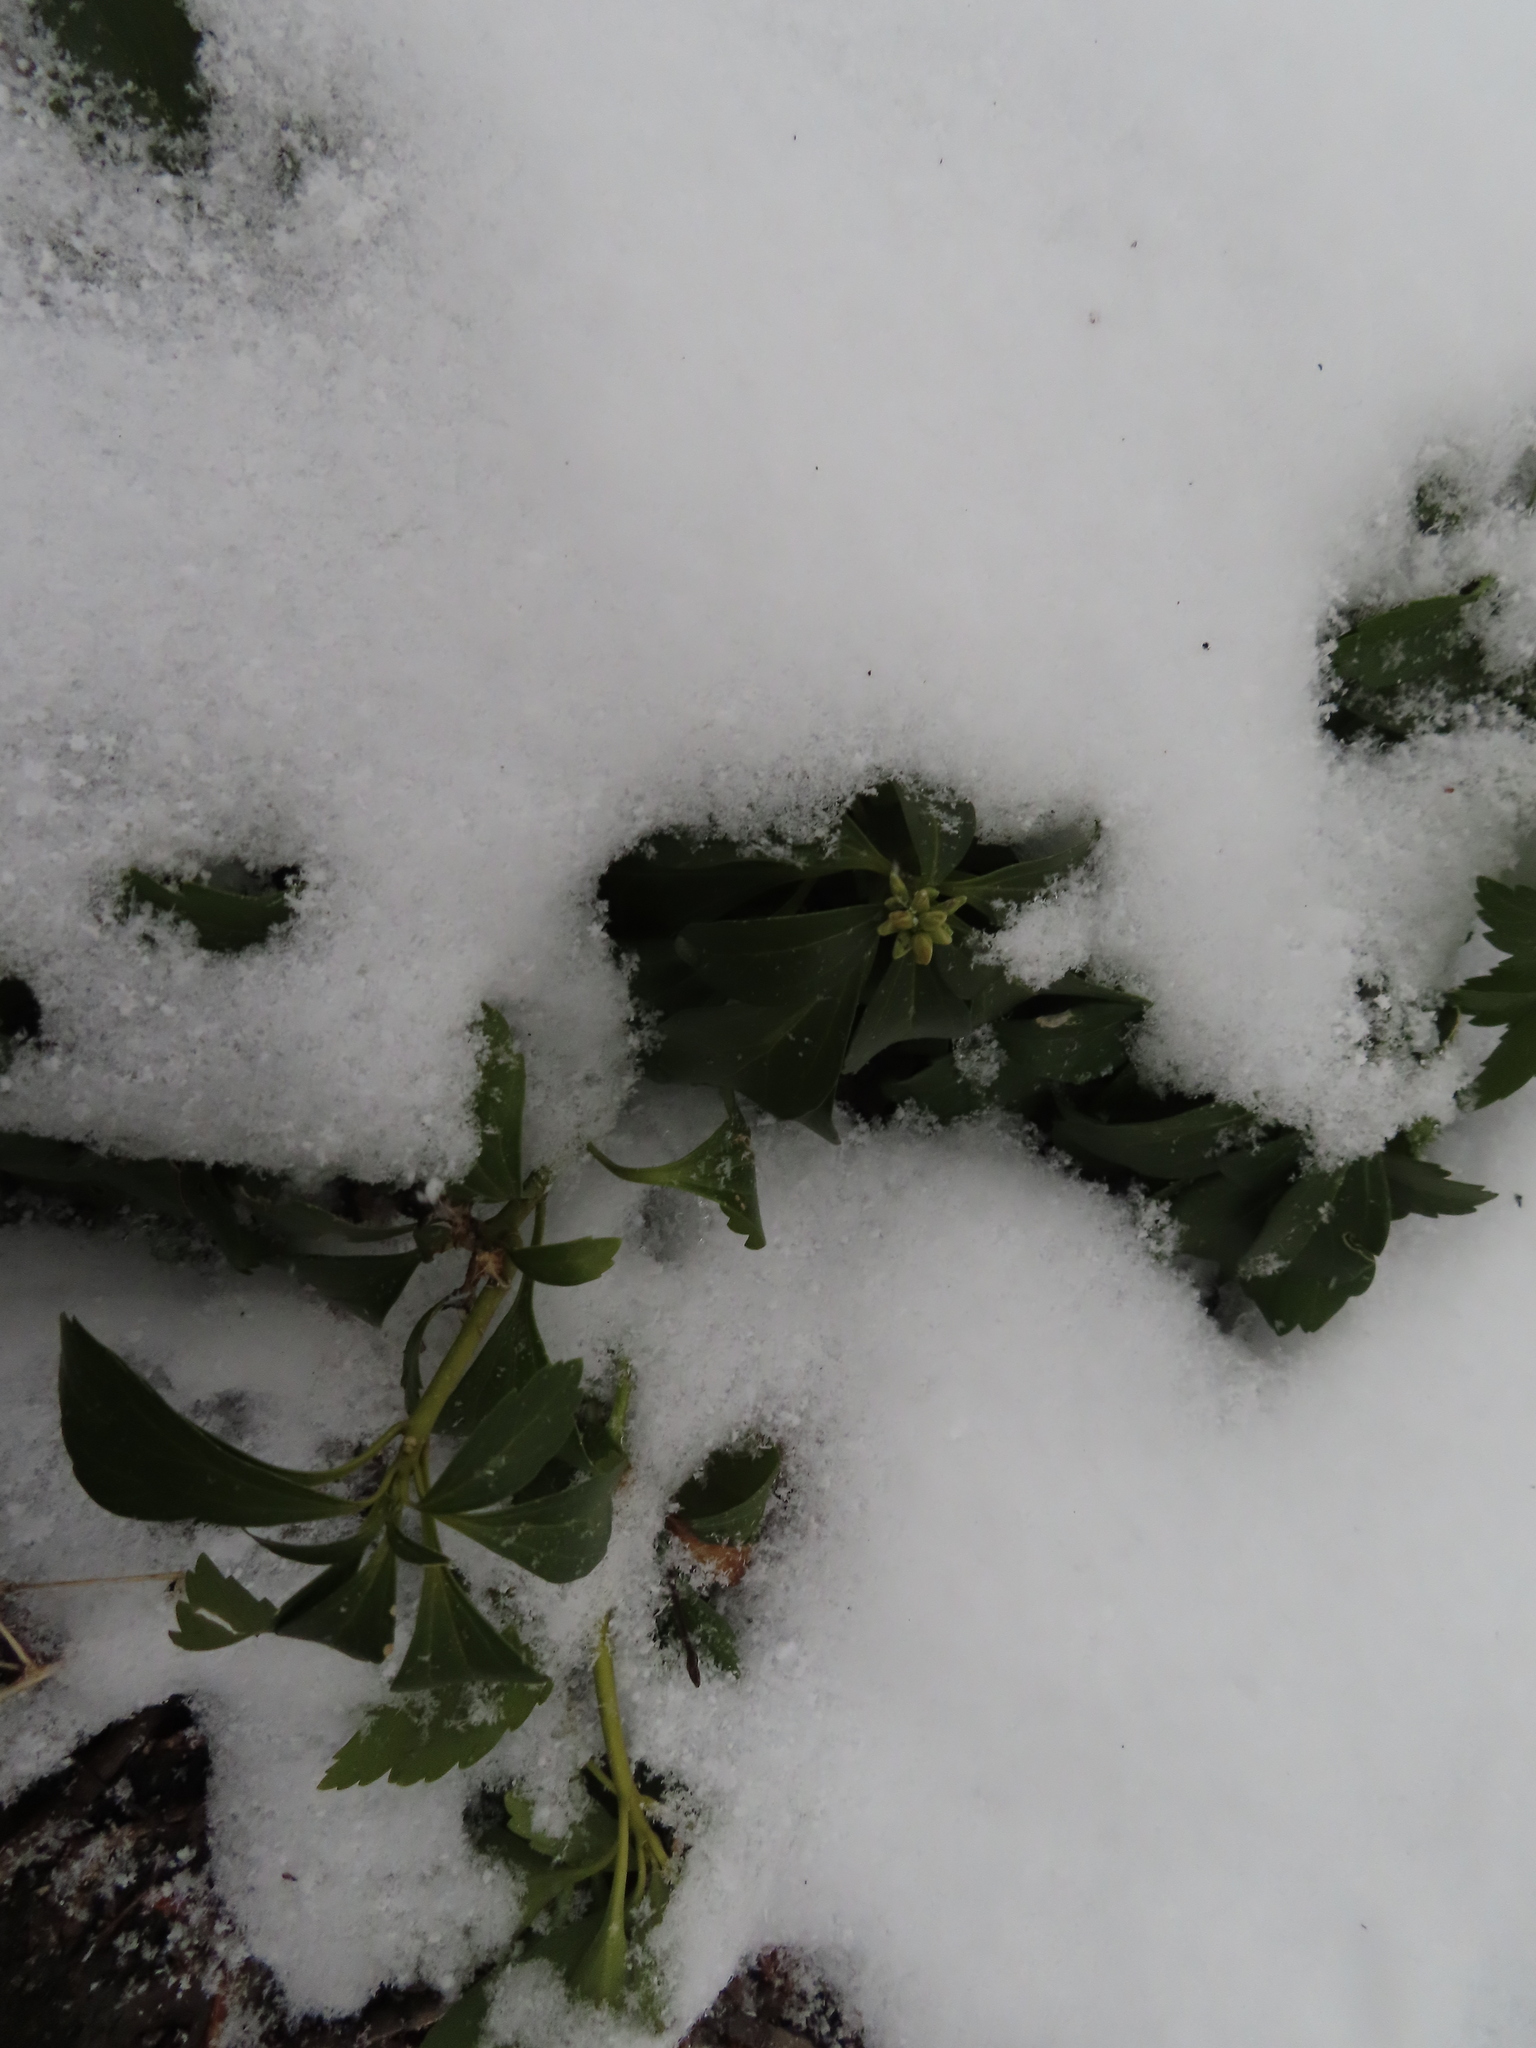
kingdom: Plantae
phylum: Tracheophyta
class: Magnoliopsida
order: Buxales
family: Buxaceae
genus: Pachysandra
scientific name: Pachysandra terminalis
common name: Japanese pachysandra
